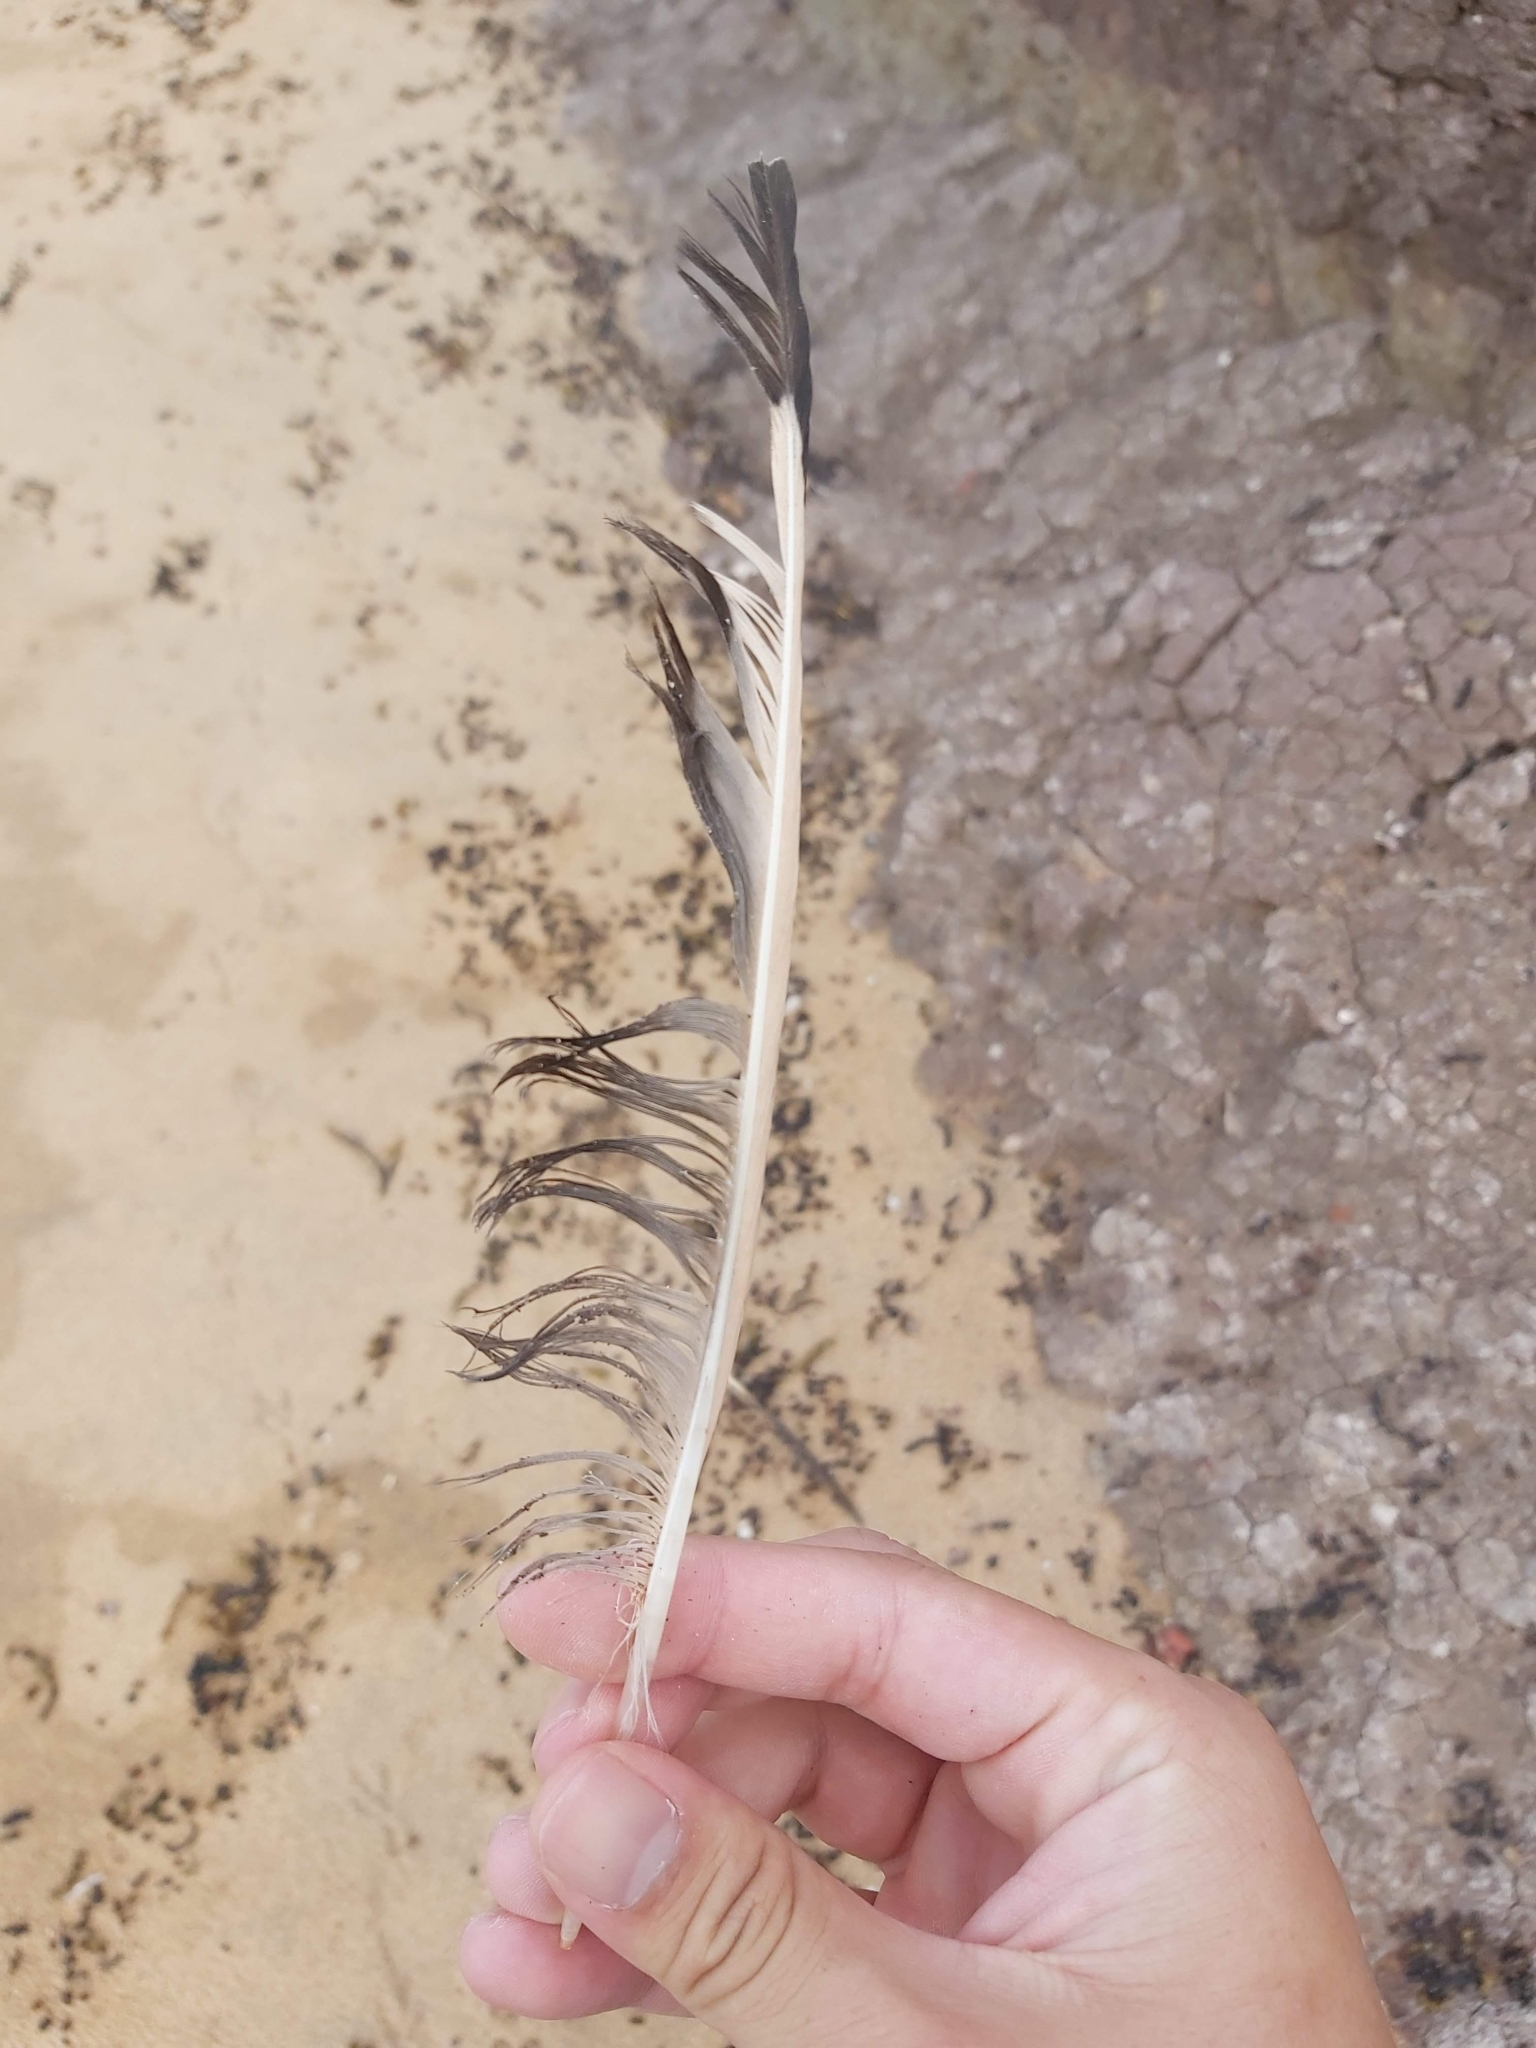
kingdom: Animalia
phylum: Chordata
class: Aves
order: Charadriiformes
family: Laridae
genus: Chroicocephalus
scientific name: Chroicocephalus novaehollandiae
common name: Silver gull
